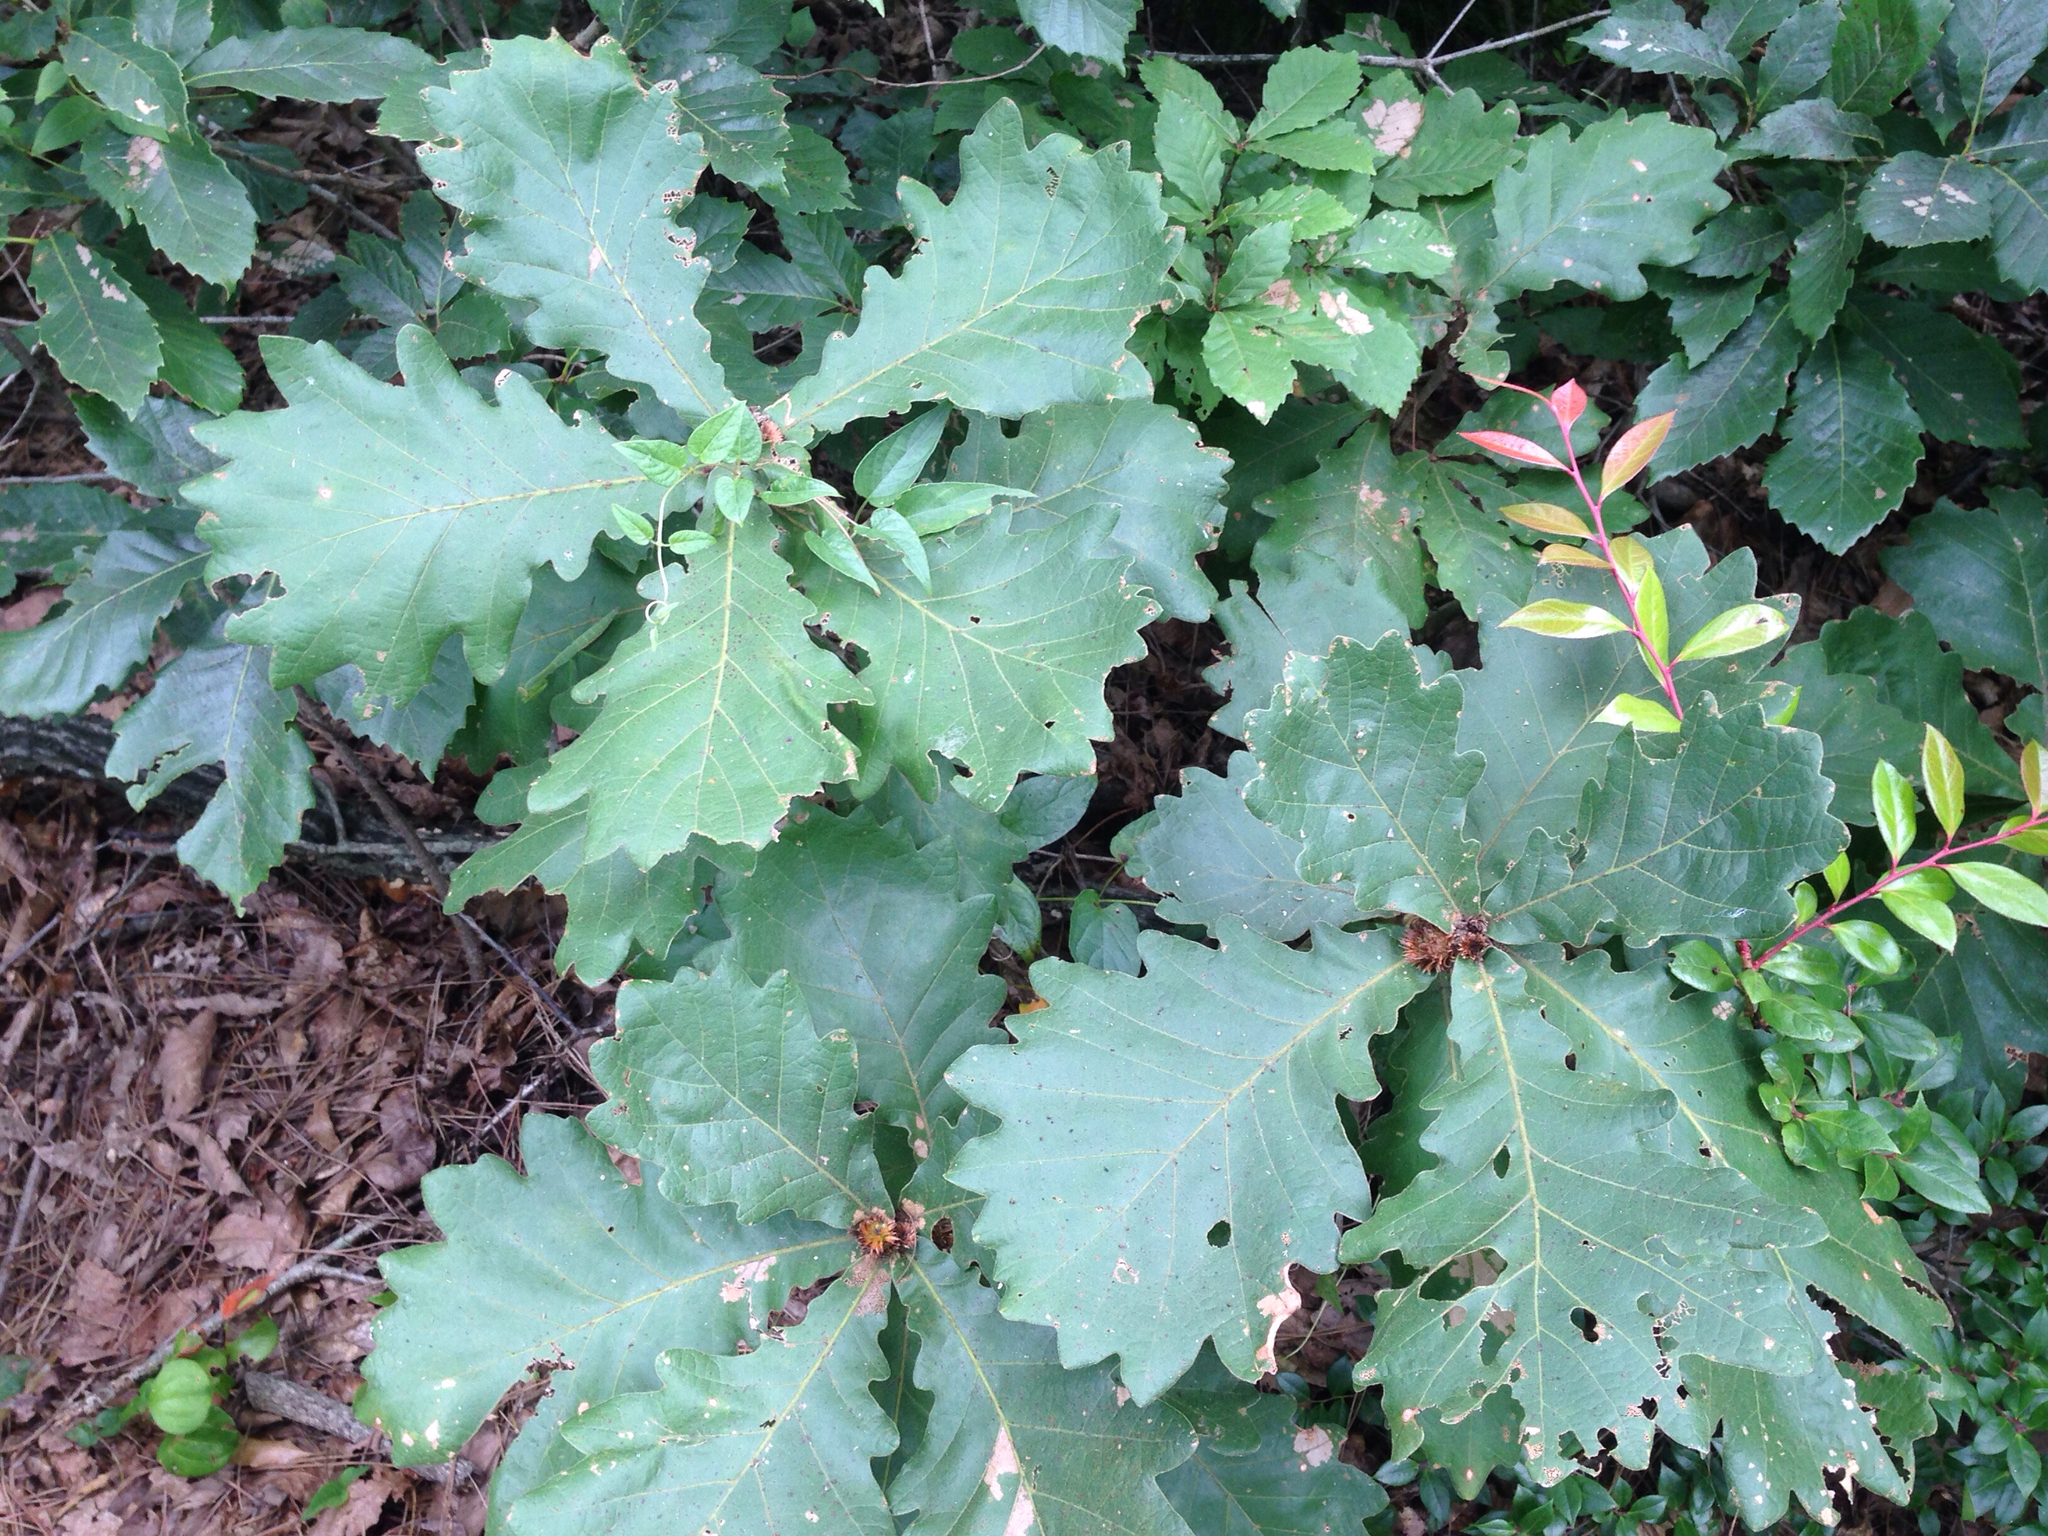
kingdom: Plantae
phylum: Tracheophyta
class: Magnoliopsida
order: Fagales
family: Fagaceae
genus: Quercus
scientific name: Quercus dentata
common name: Daimyo oak
